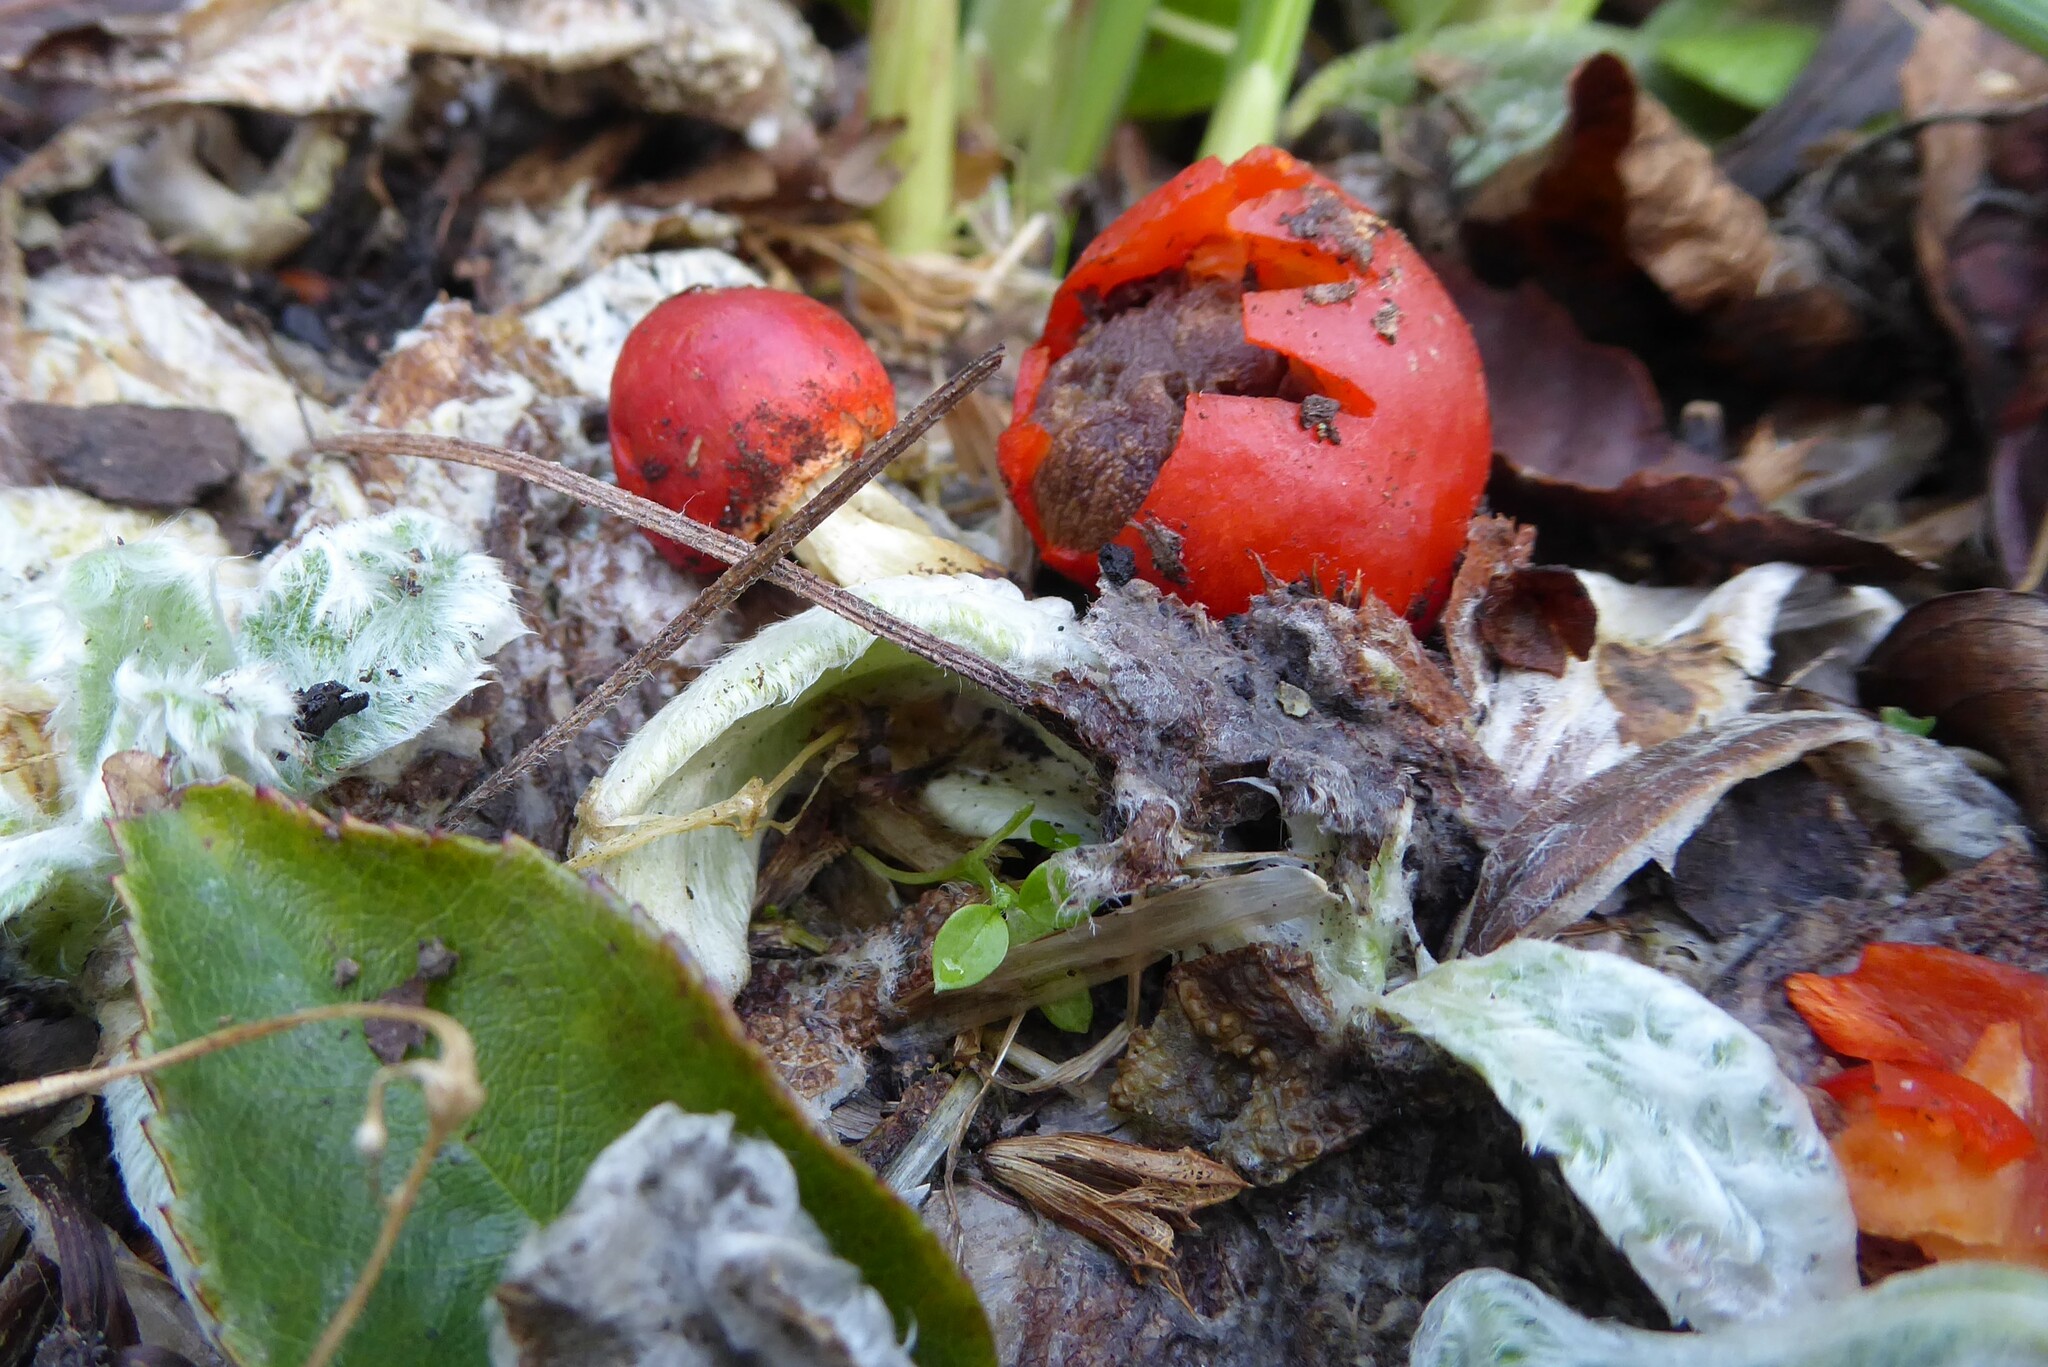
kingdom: Fungi
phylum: Basidiomycota
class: Agaricomycetes
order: Agaricales
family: Strophariaceae
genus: Leratiomyces
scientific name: Leratiomyces erythrocephalus
